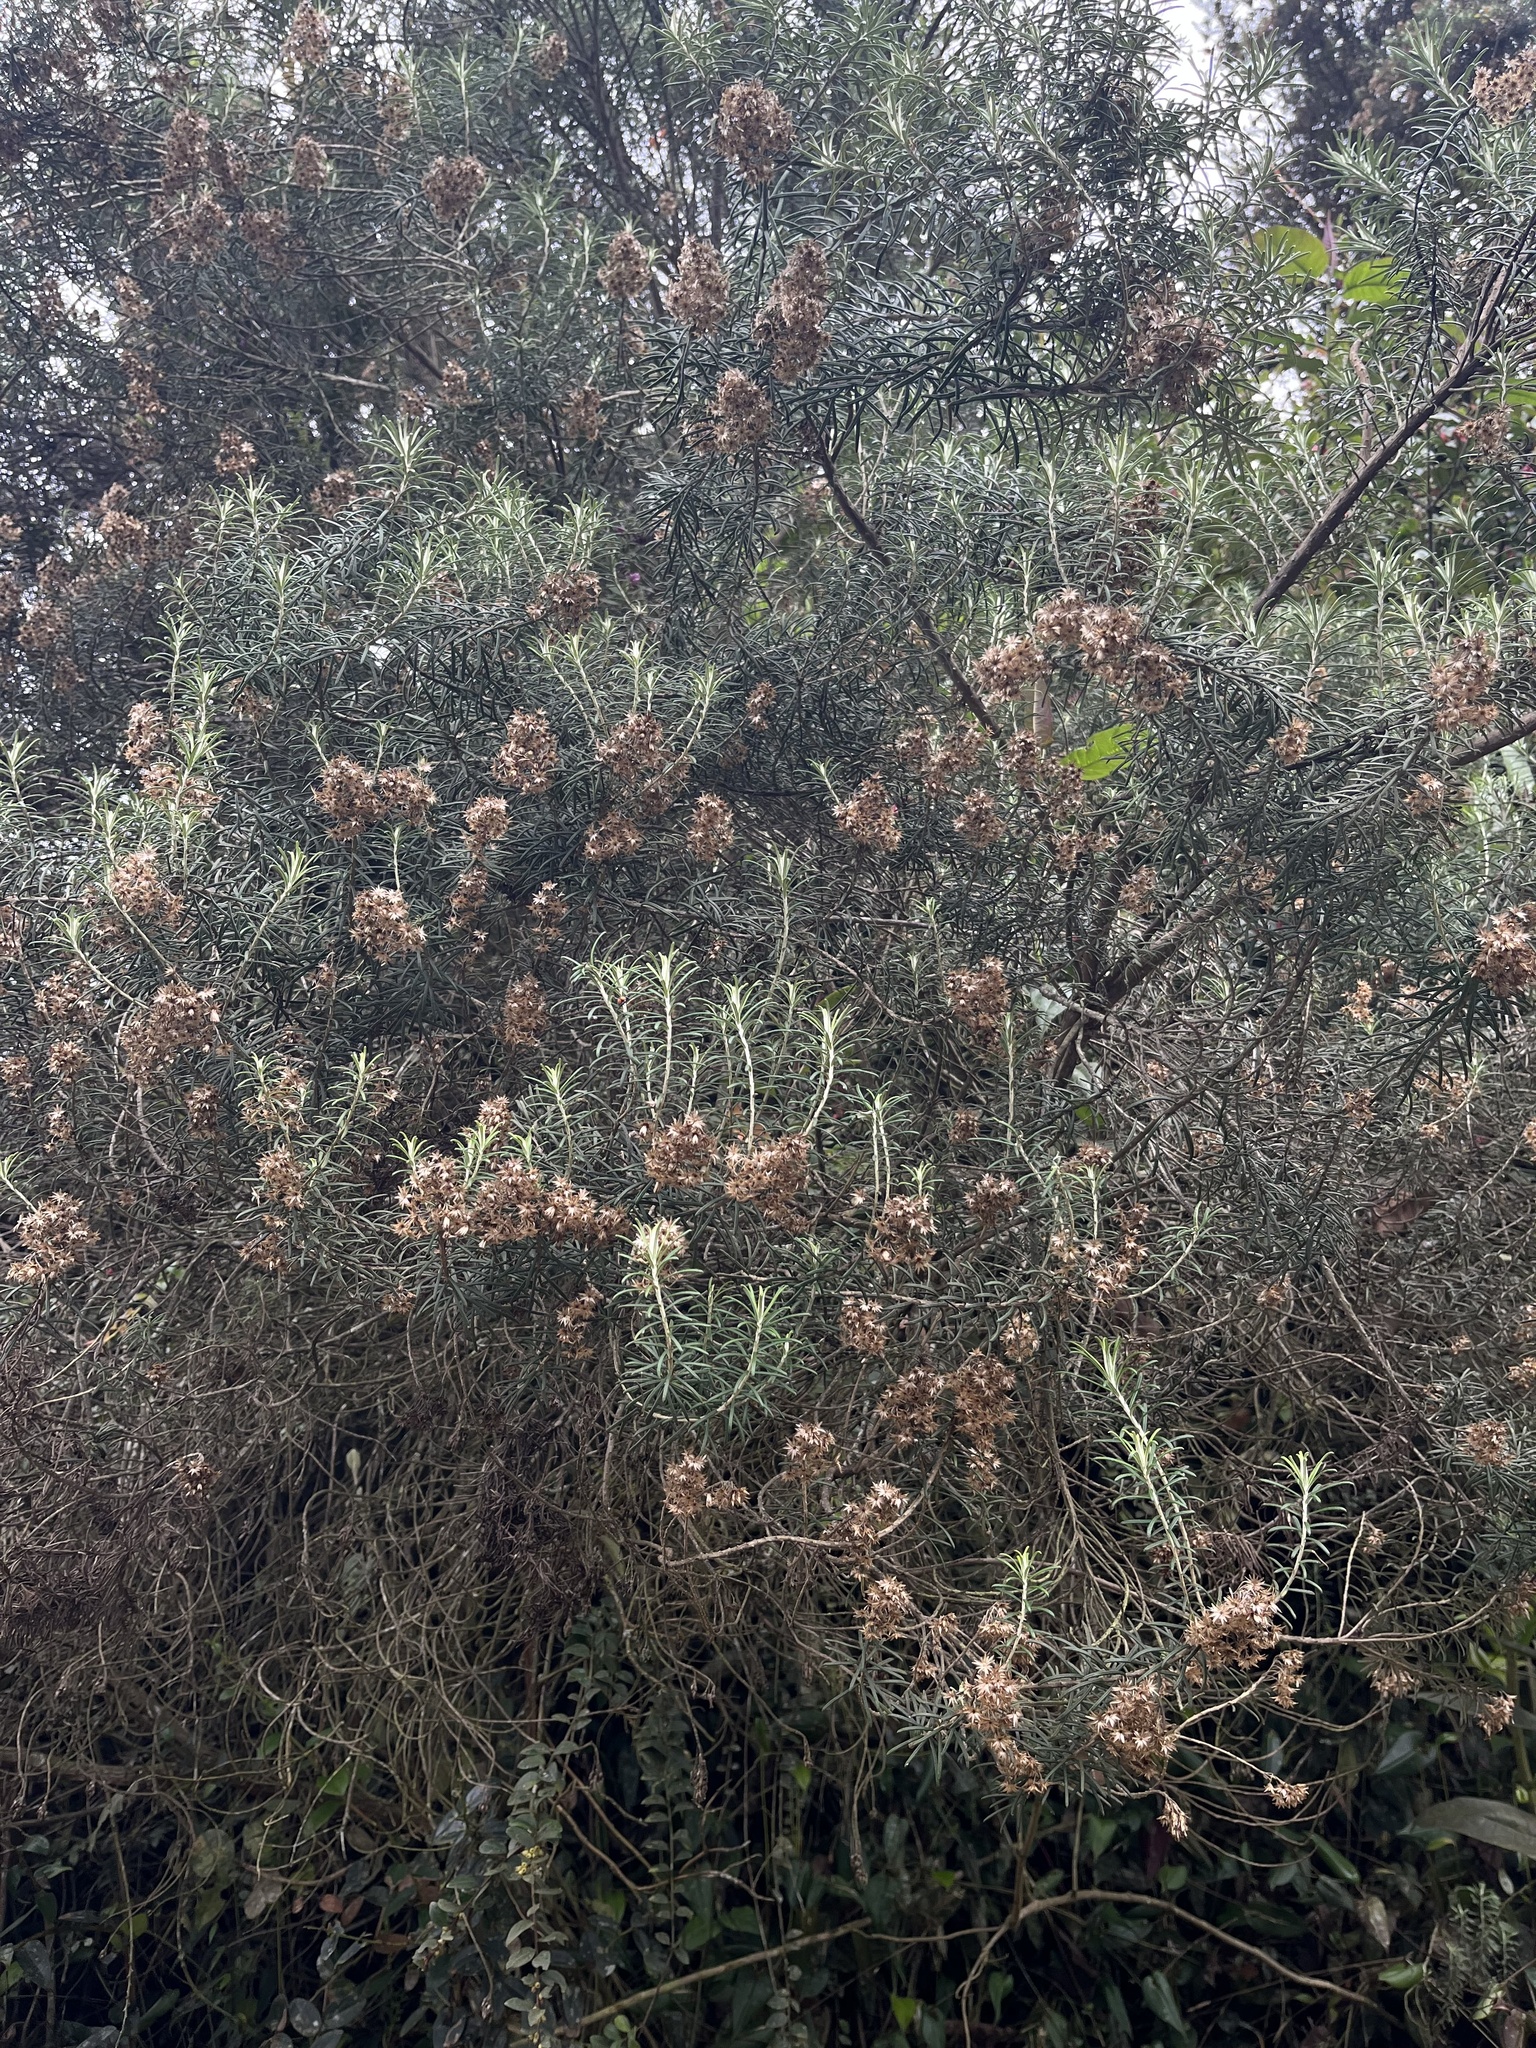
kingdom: Plantae
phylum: Tracheophyta
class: Magnoliopsida
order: Asterales
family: Asteraceae
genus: Linochilus
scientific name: Linochilus rosmarinifolius
